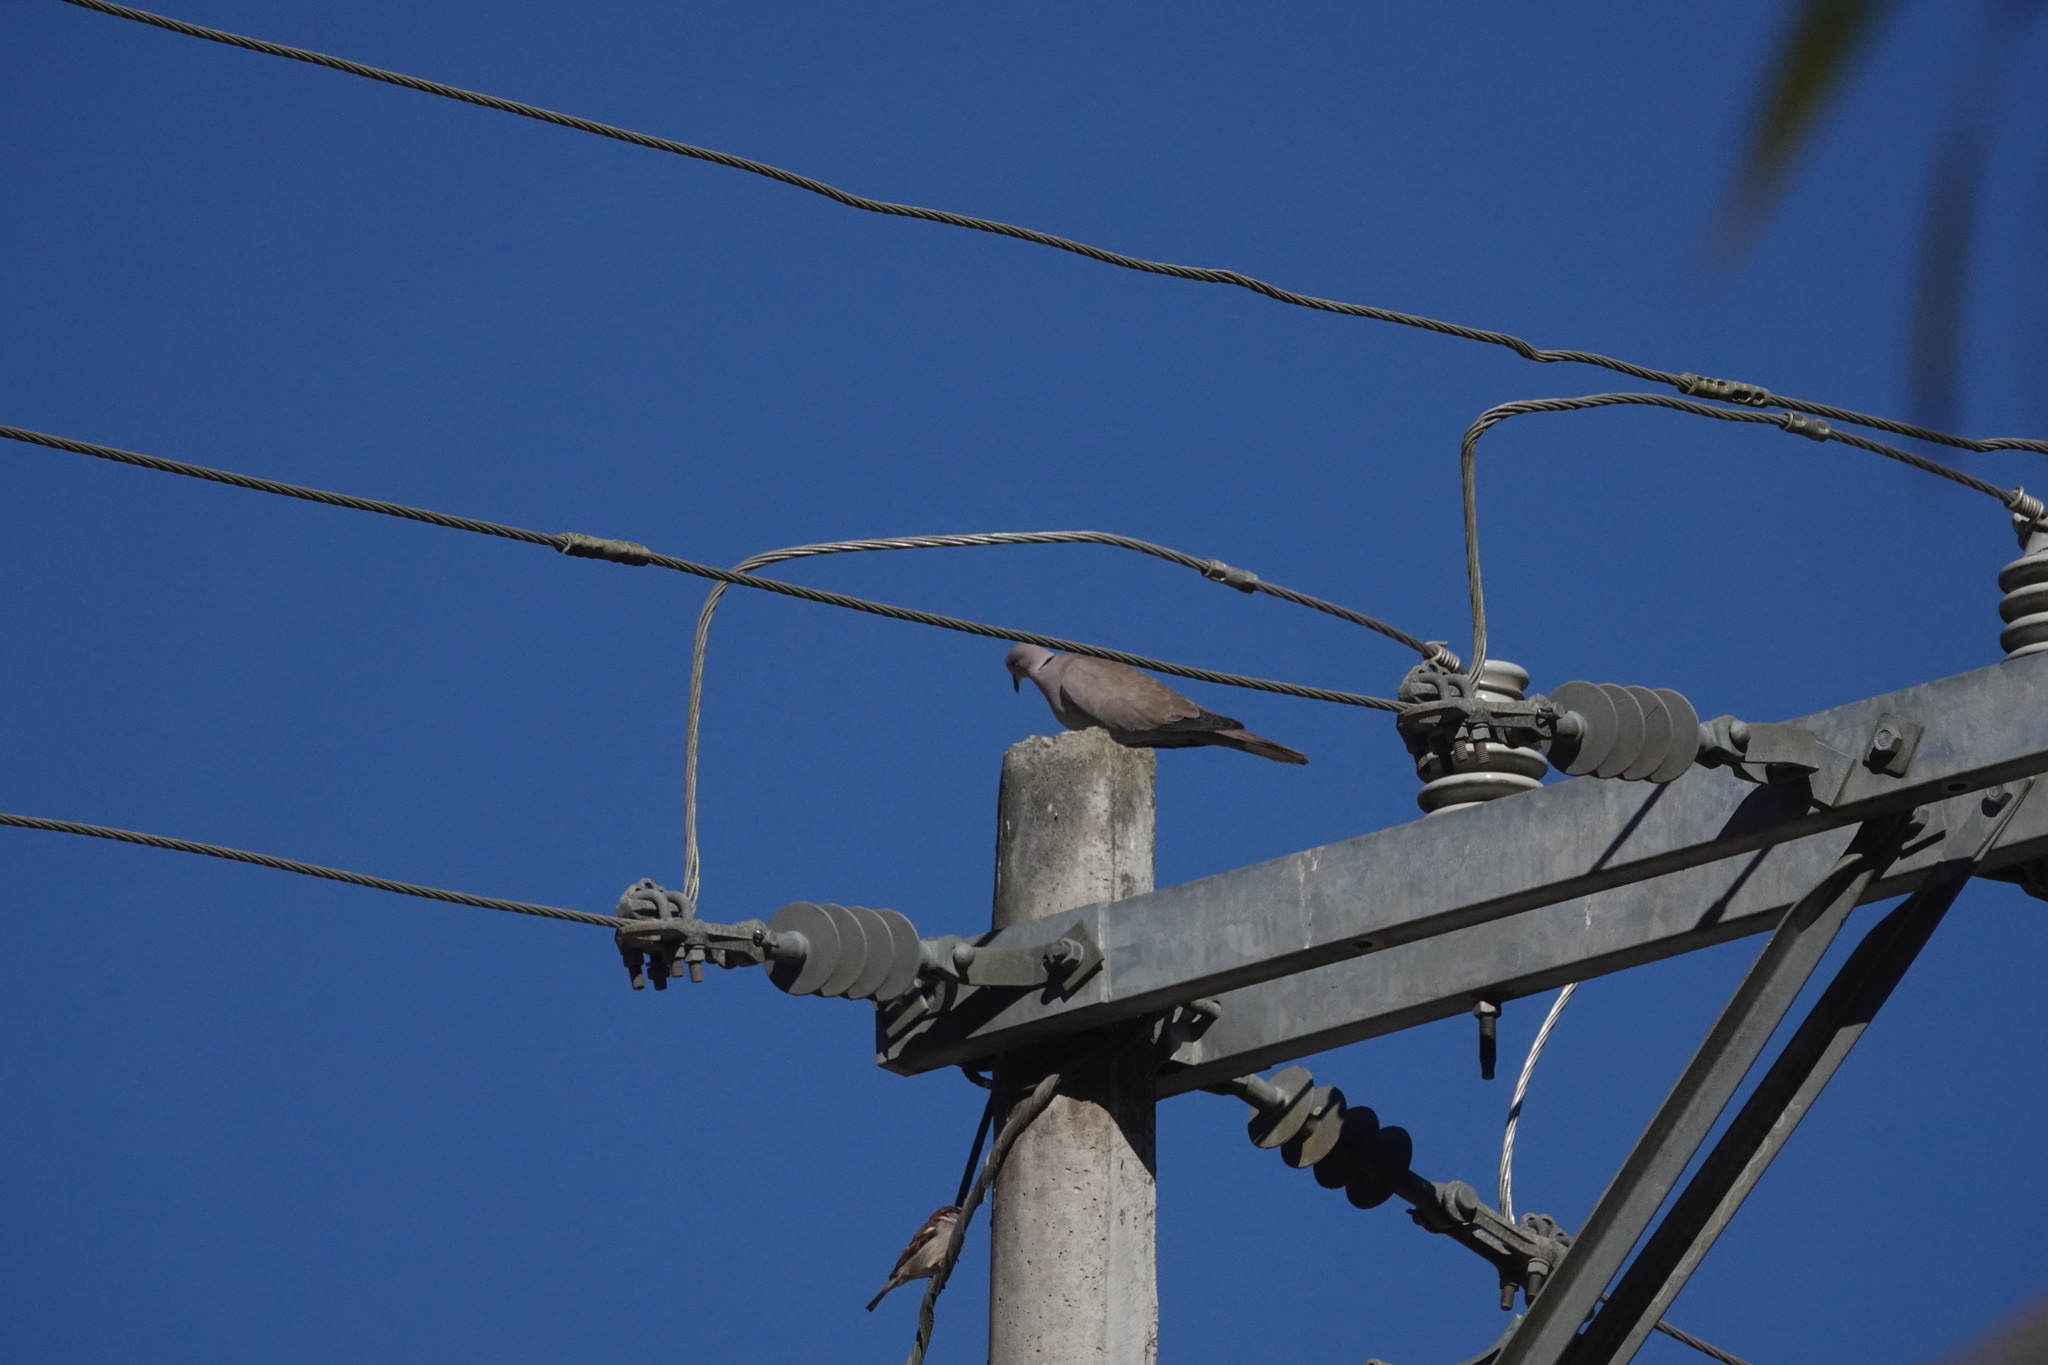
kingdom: Animalia
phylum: Chordata
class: Aves
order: Columbiformes
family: Columbidae
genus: Streptopelia
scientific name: Streptopelia decaocto
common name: Eurasian collared dove
